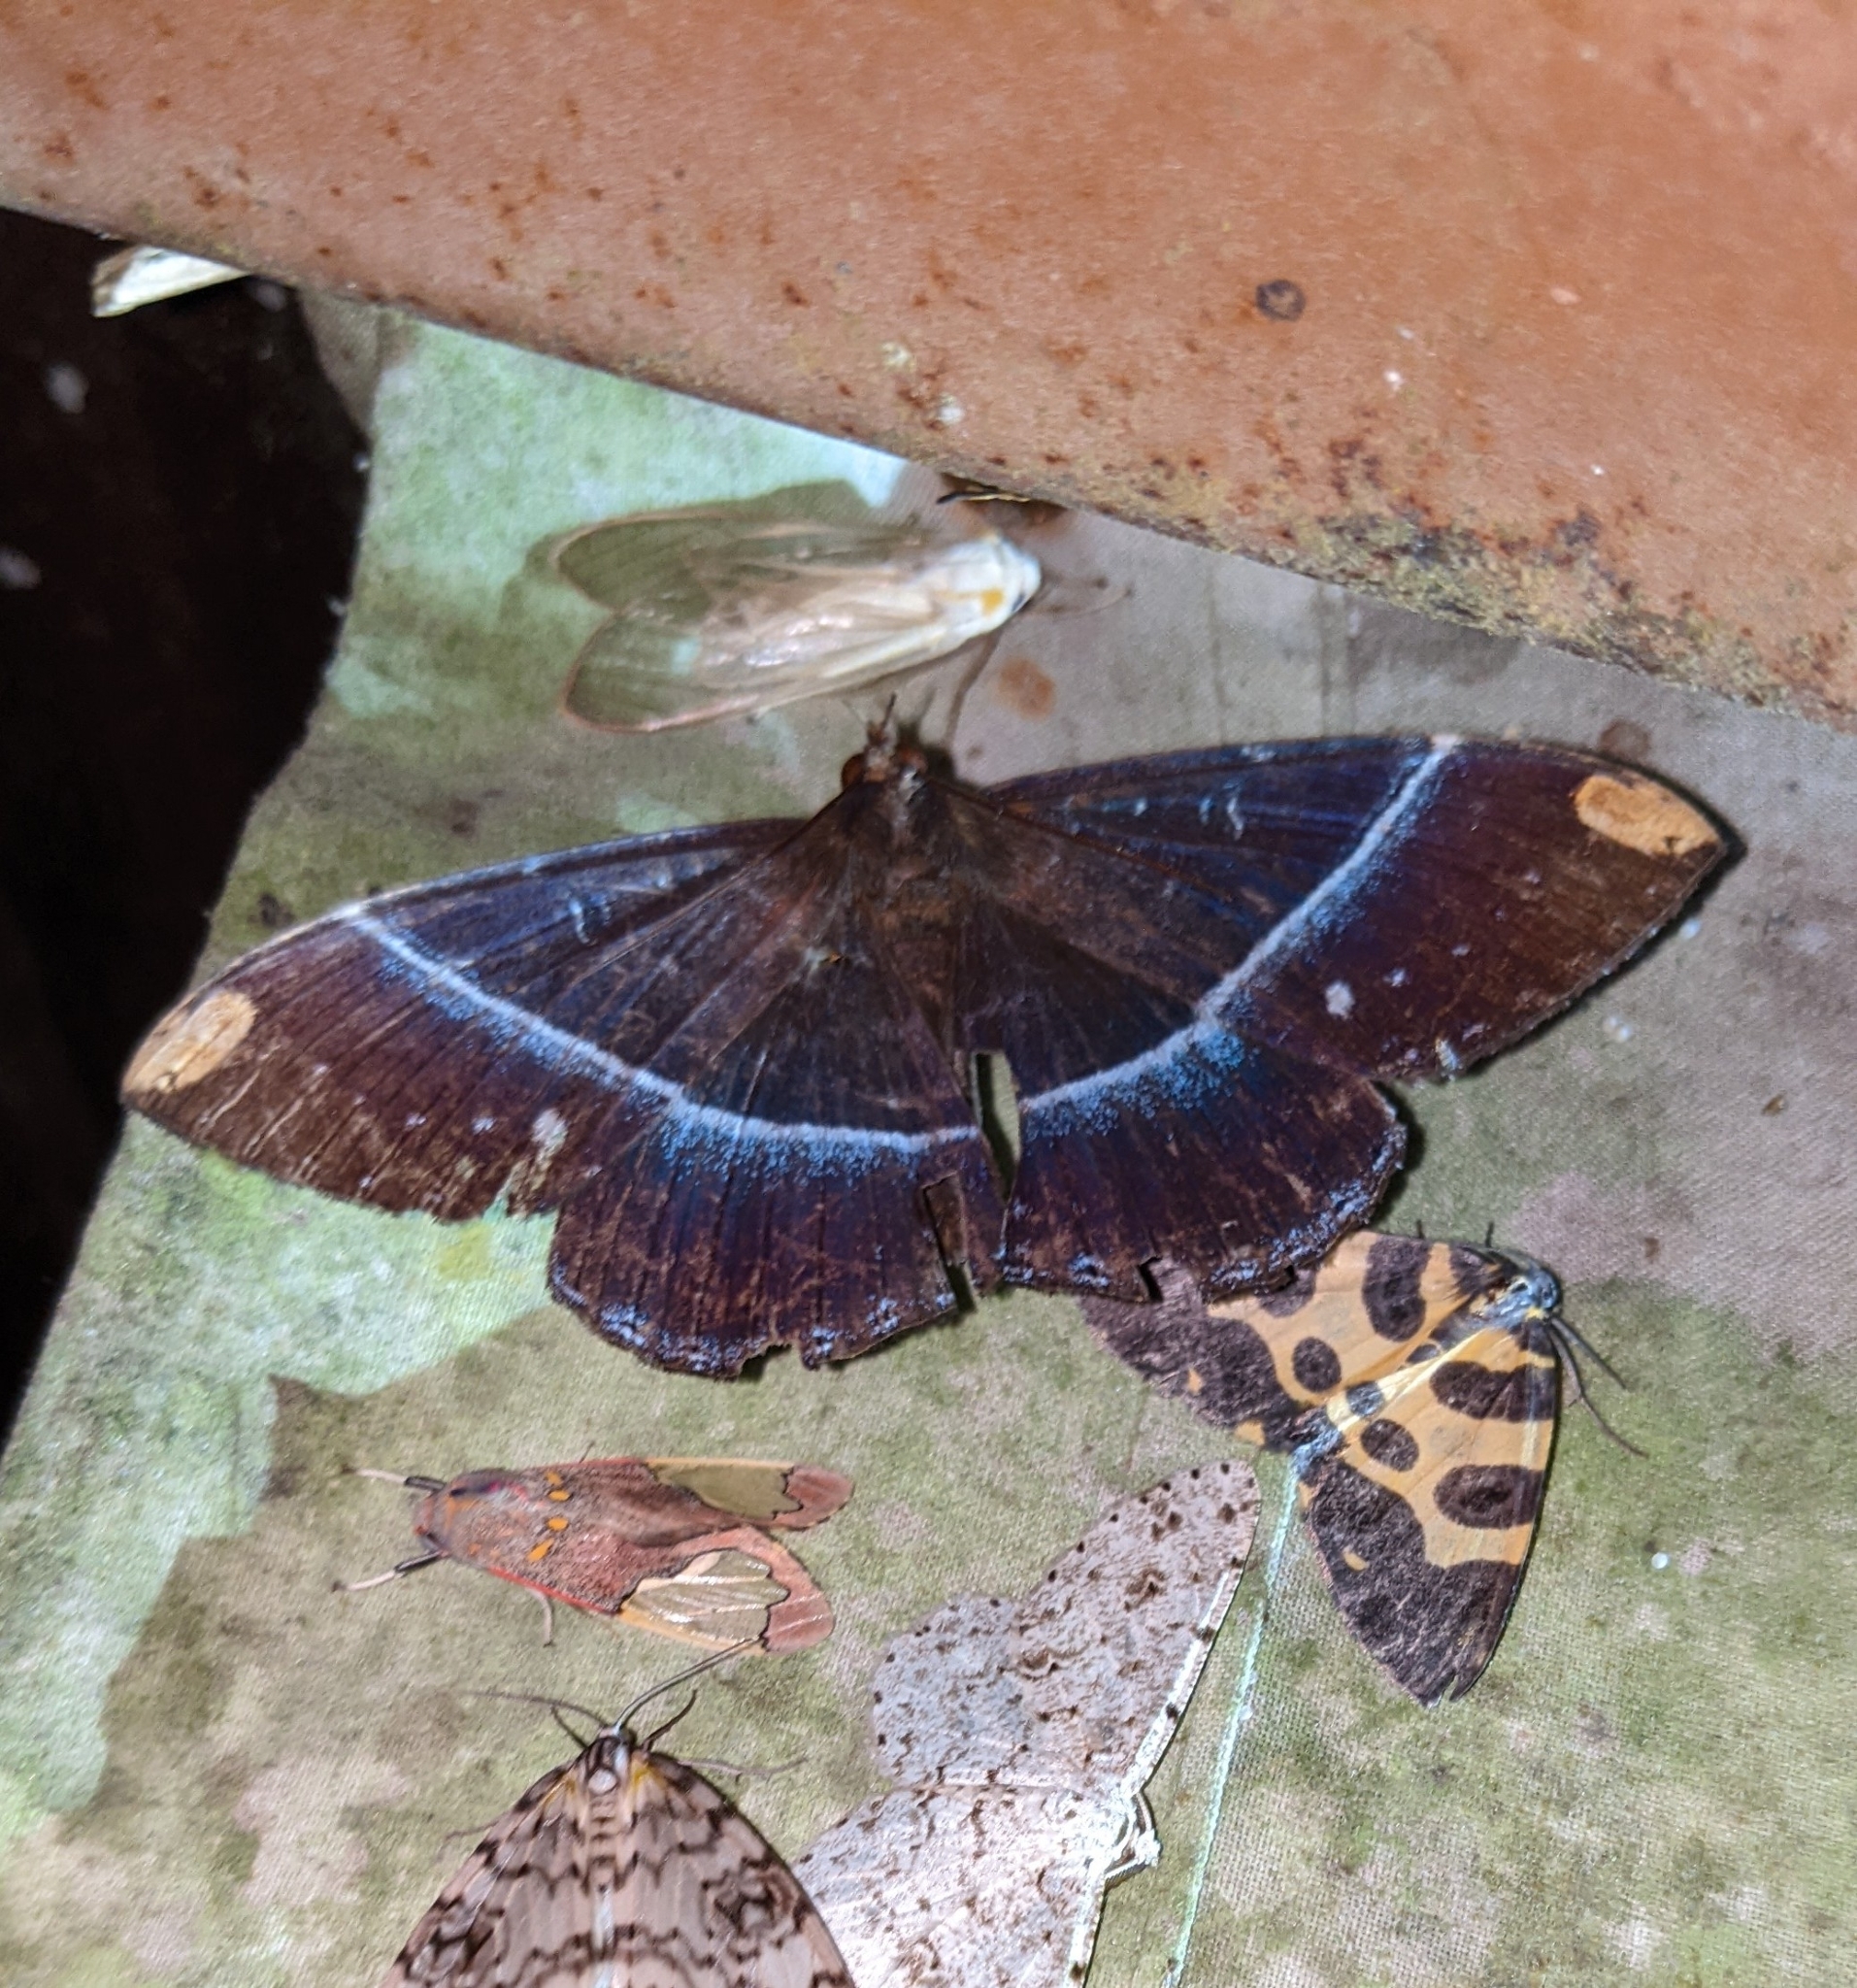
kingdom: Animalia
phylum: Arthropoda
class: Insecta
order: Lepidoptera
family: Erebidae
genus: Hemeroblemma
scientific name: Hemeroblemma
